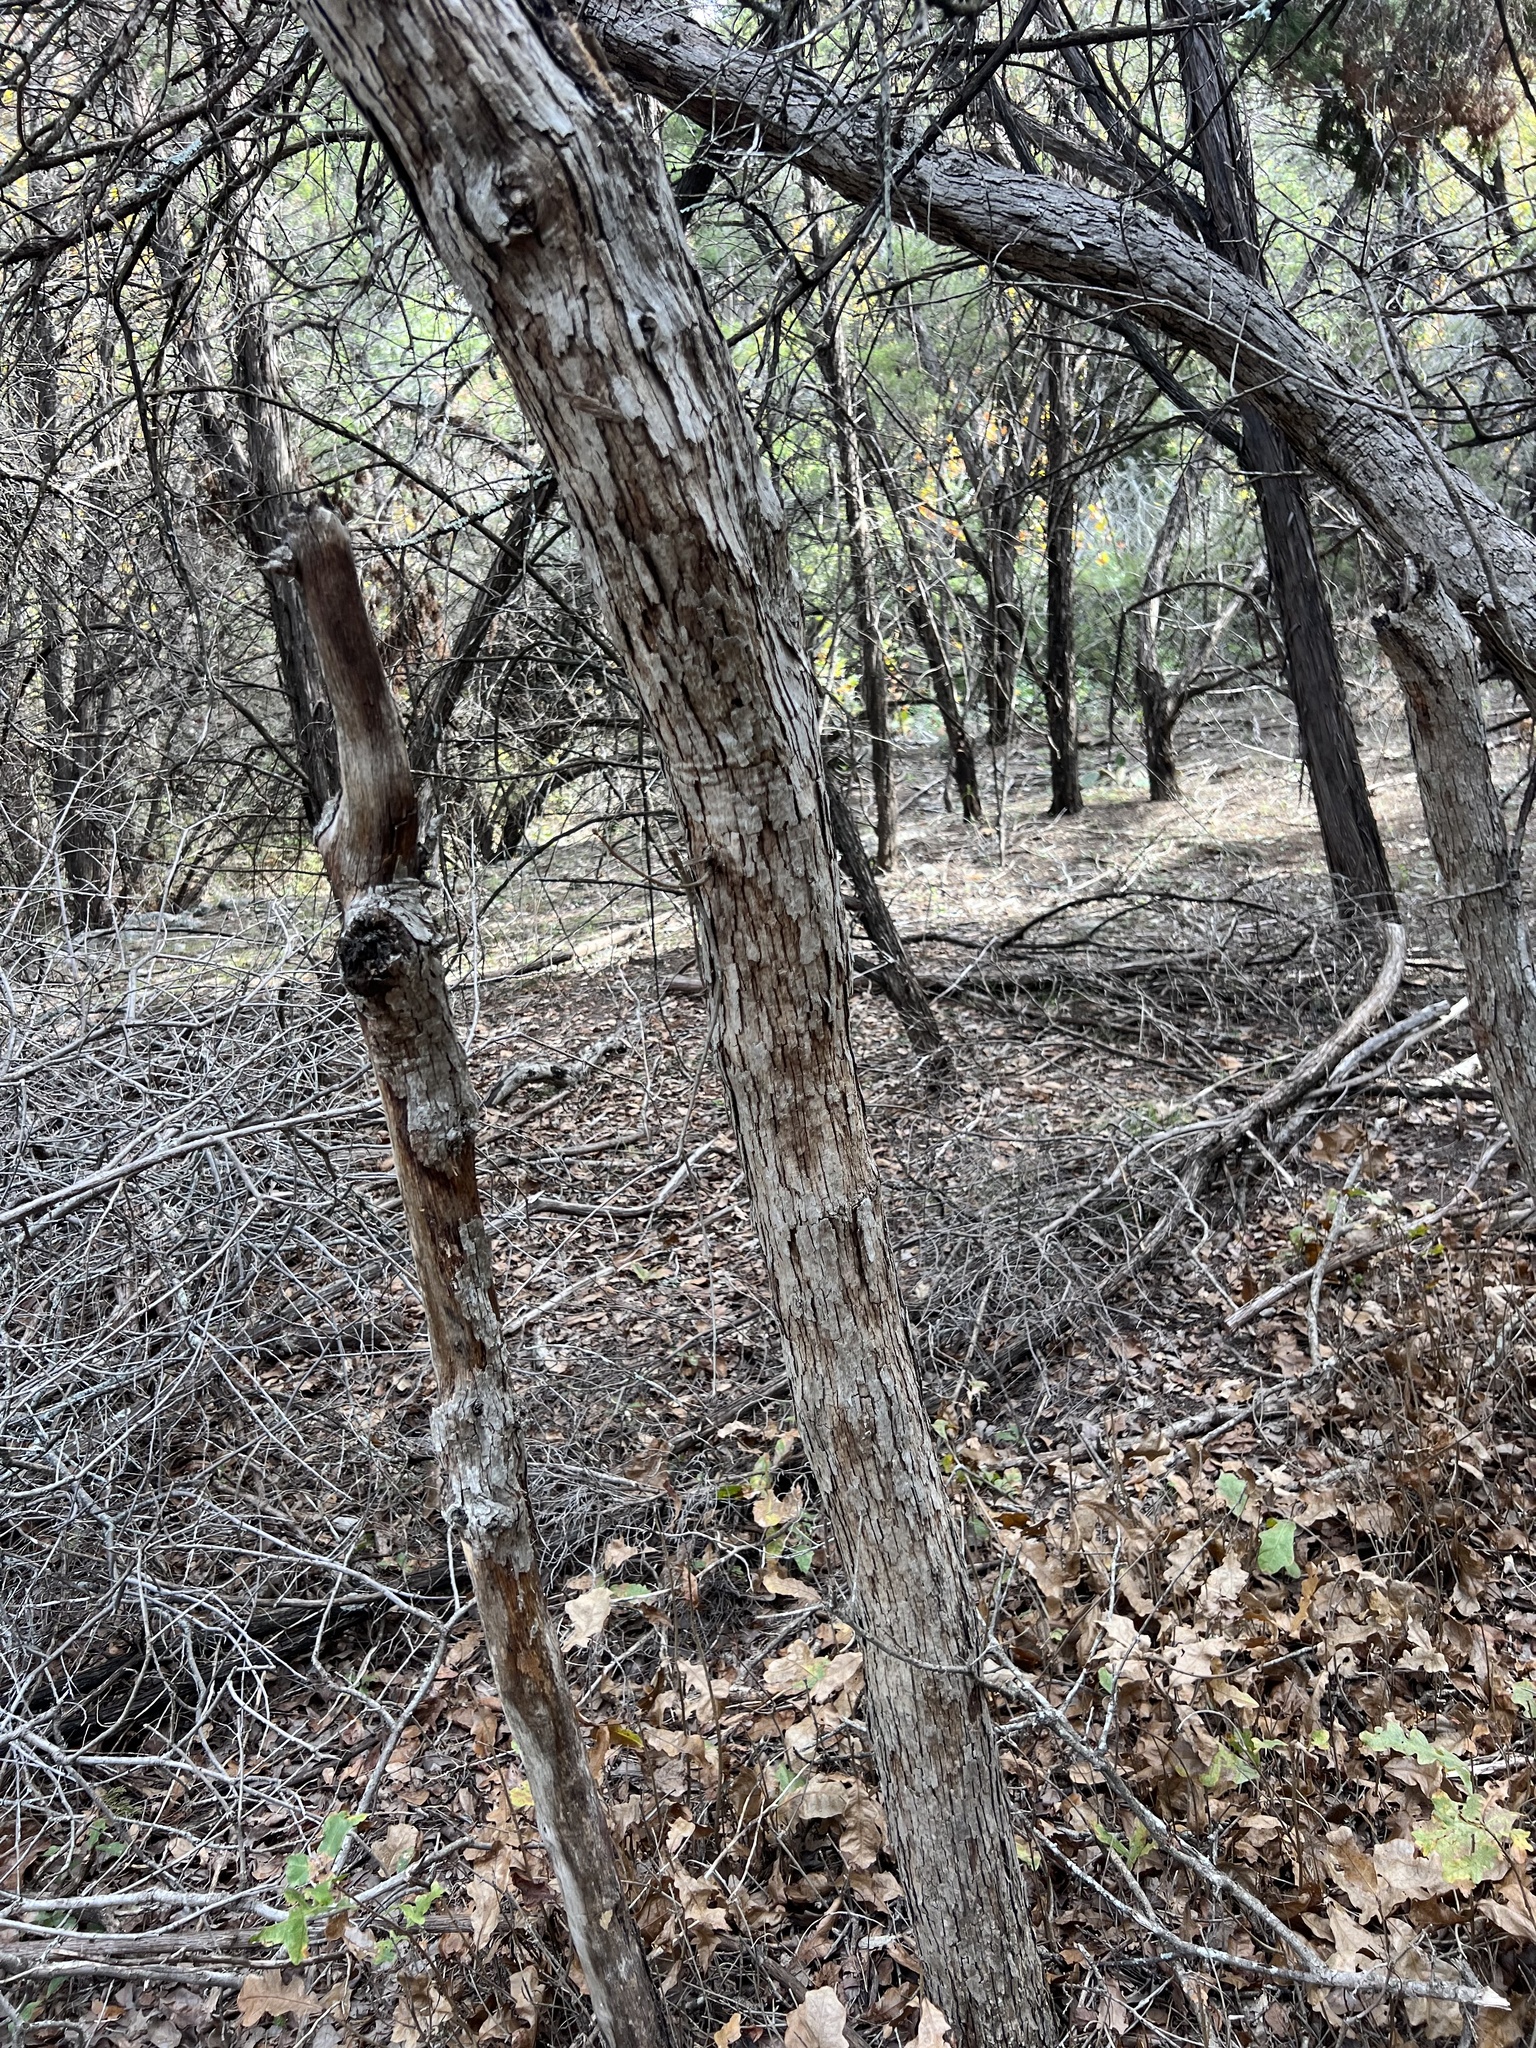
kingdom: Plantae
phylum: Tracheophyta
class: Magnoliopsida
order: Fagales
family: Fagaceae
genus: Quercus
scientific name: Quercus sinuata
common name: Durand oak
